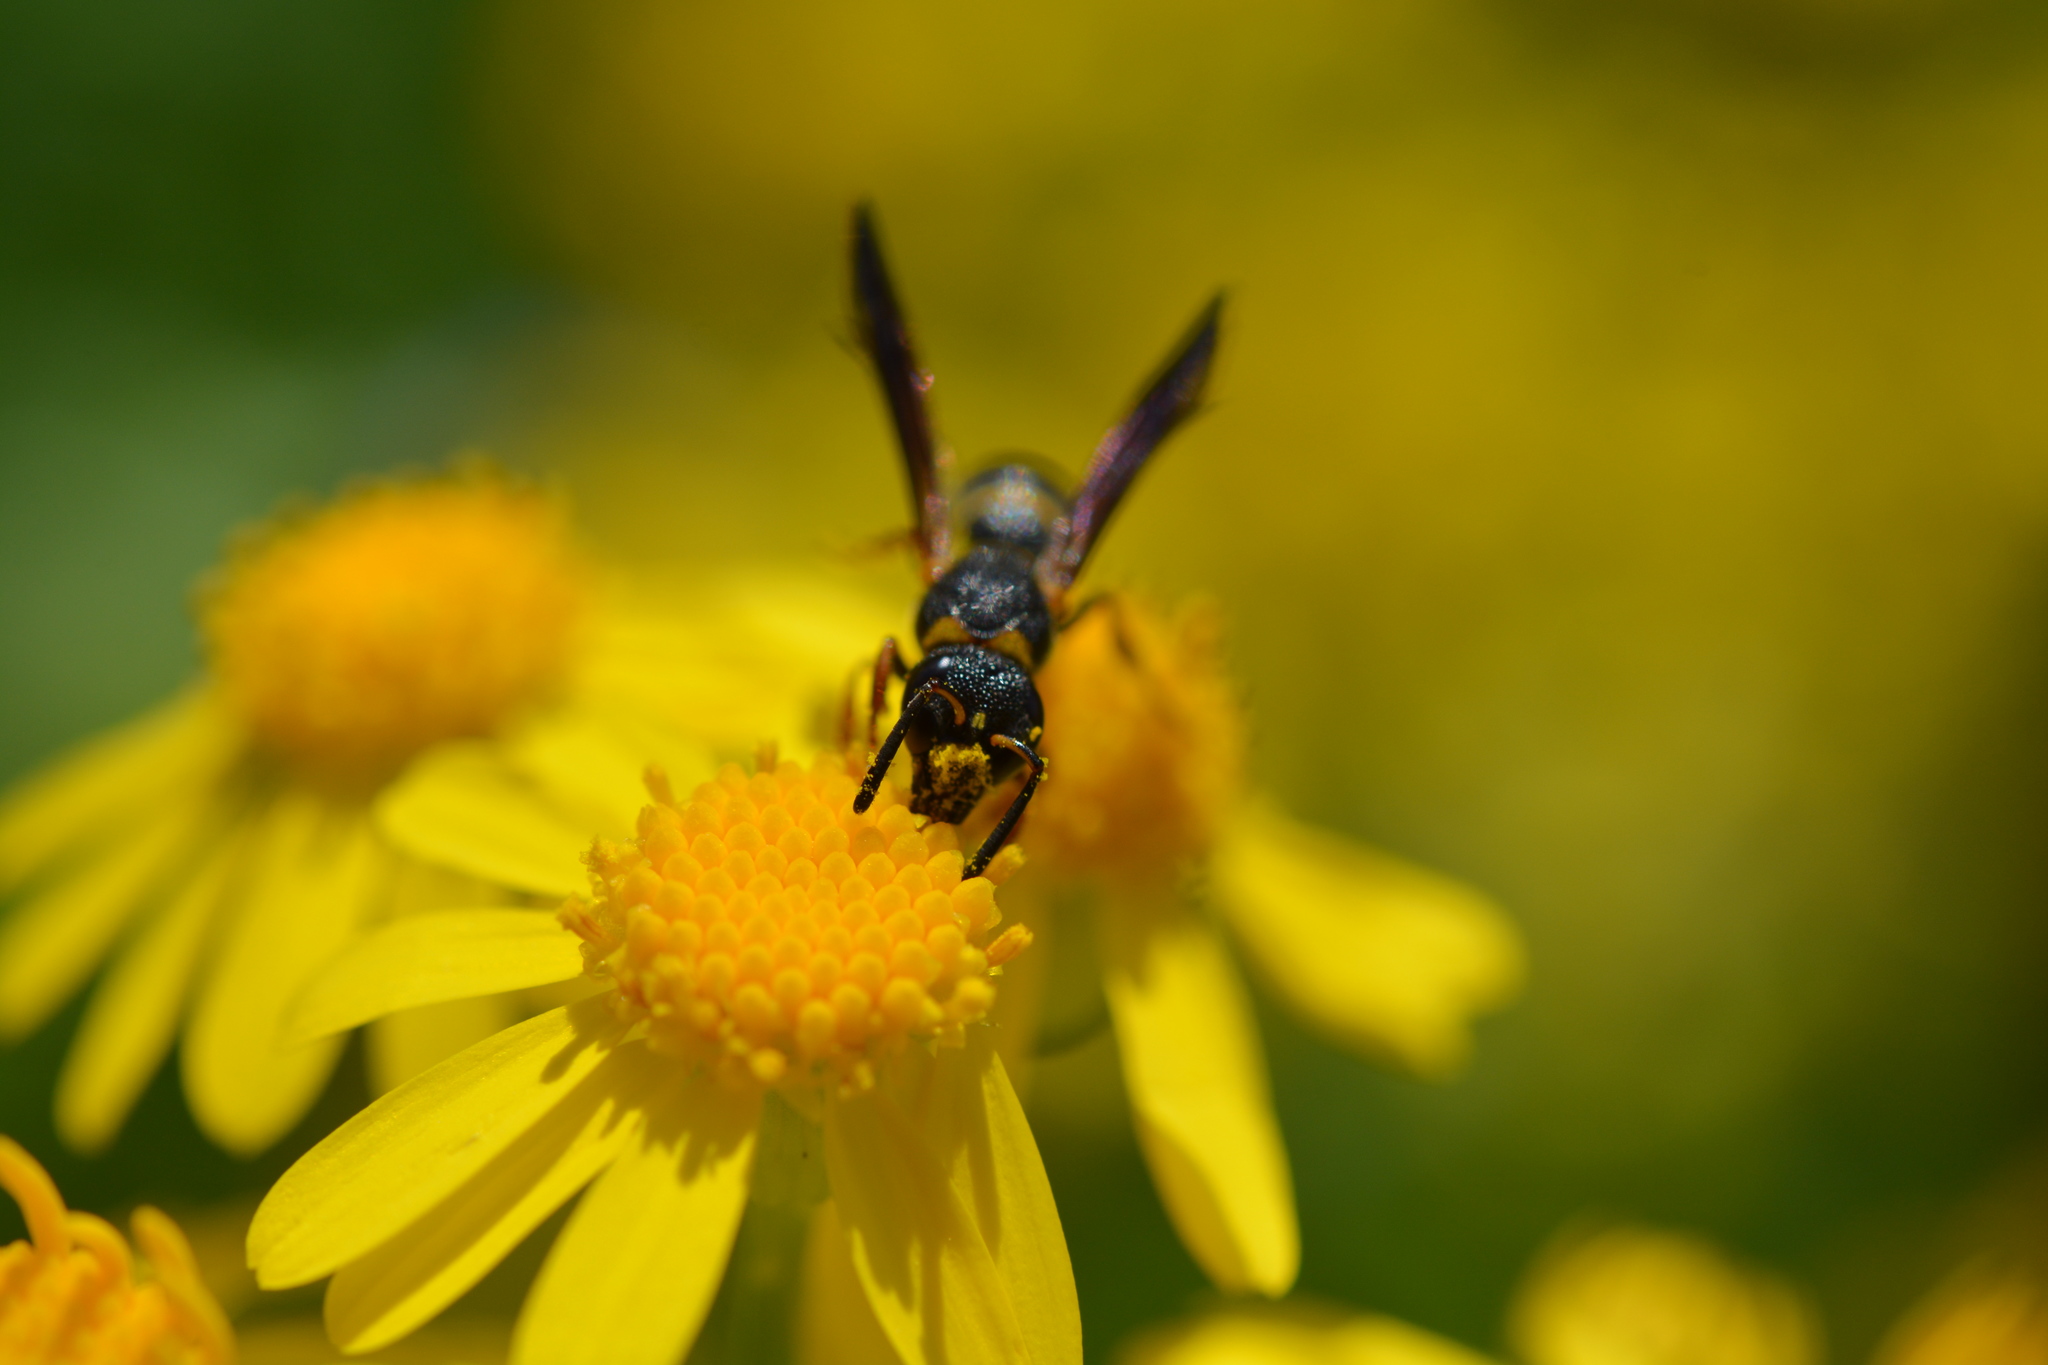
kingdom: Animalia
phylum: Arthropoda
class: Insecta
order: Hymenoptera
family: Eumenidae
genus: Parancistrocerus
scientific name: Parancistrocerus perennis
